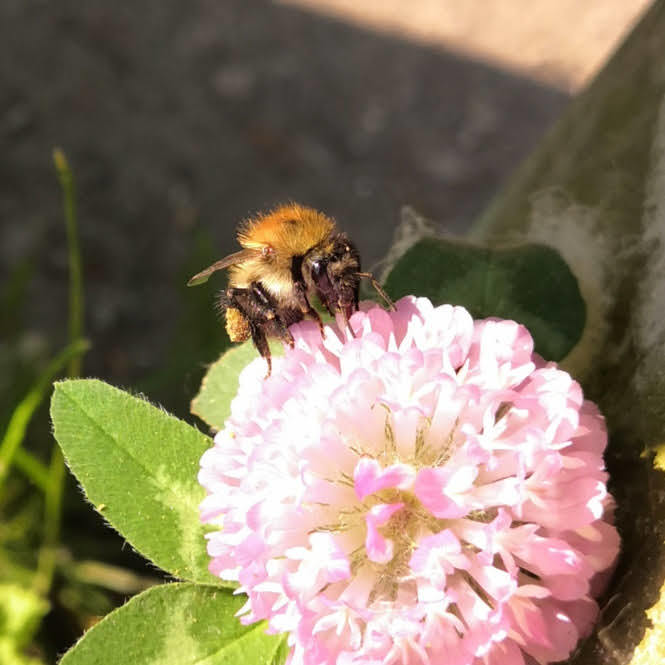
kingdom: Animalia
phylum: Arthropoda
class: Insecta
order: Hymenoptera
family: Apidae
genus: Bombus
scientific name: Bombus pascuorum
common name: Common carder bee
